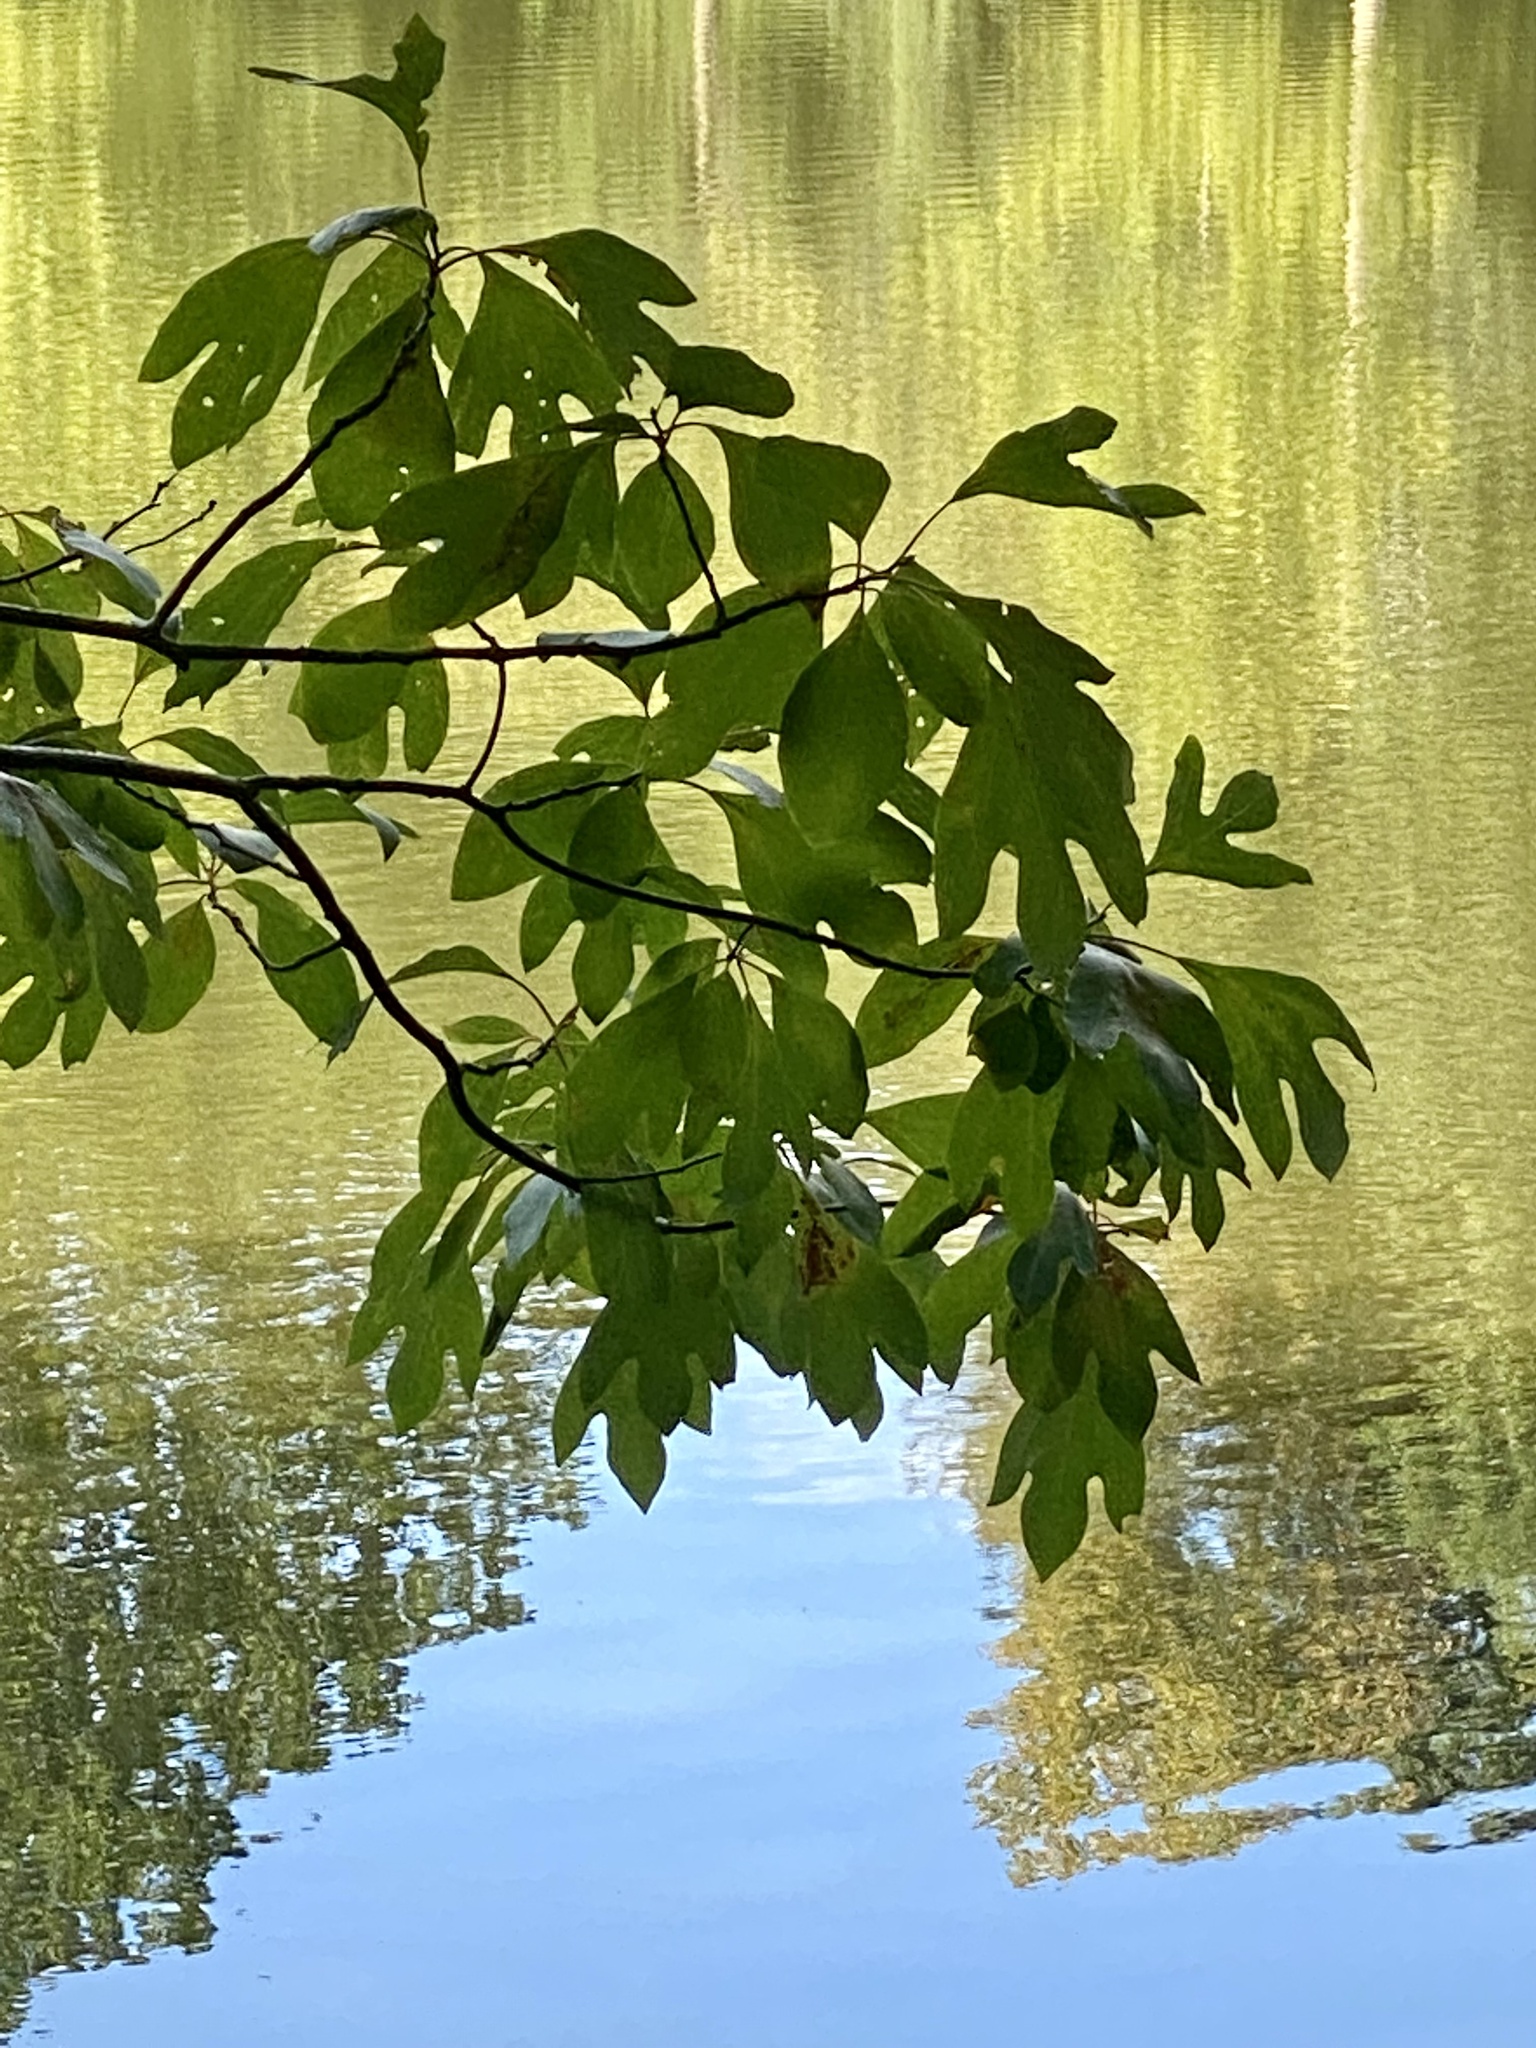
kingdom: Plantae
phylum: Tracheophyta
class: Magnoliopsida
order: Laurales
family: Lauraceae
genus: Sassafras
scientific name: Sassafras albidum
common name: Sassafras
